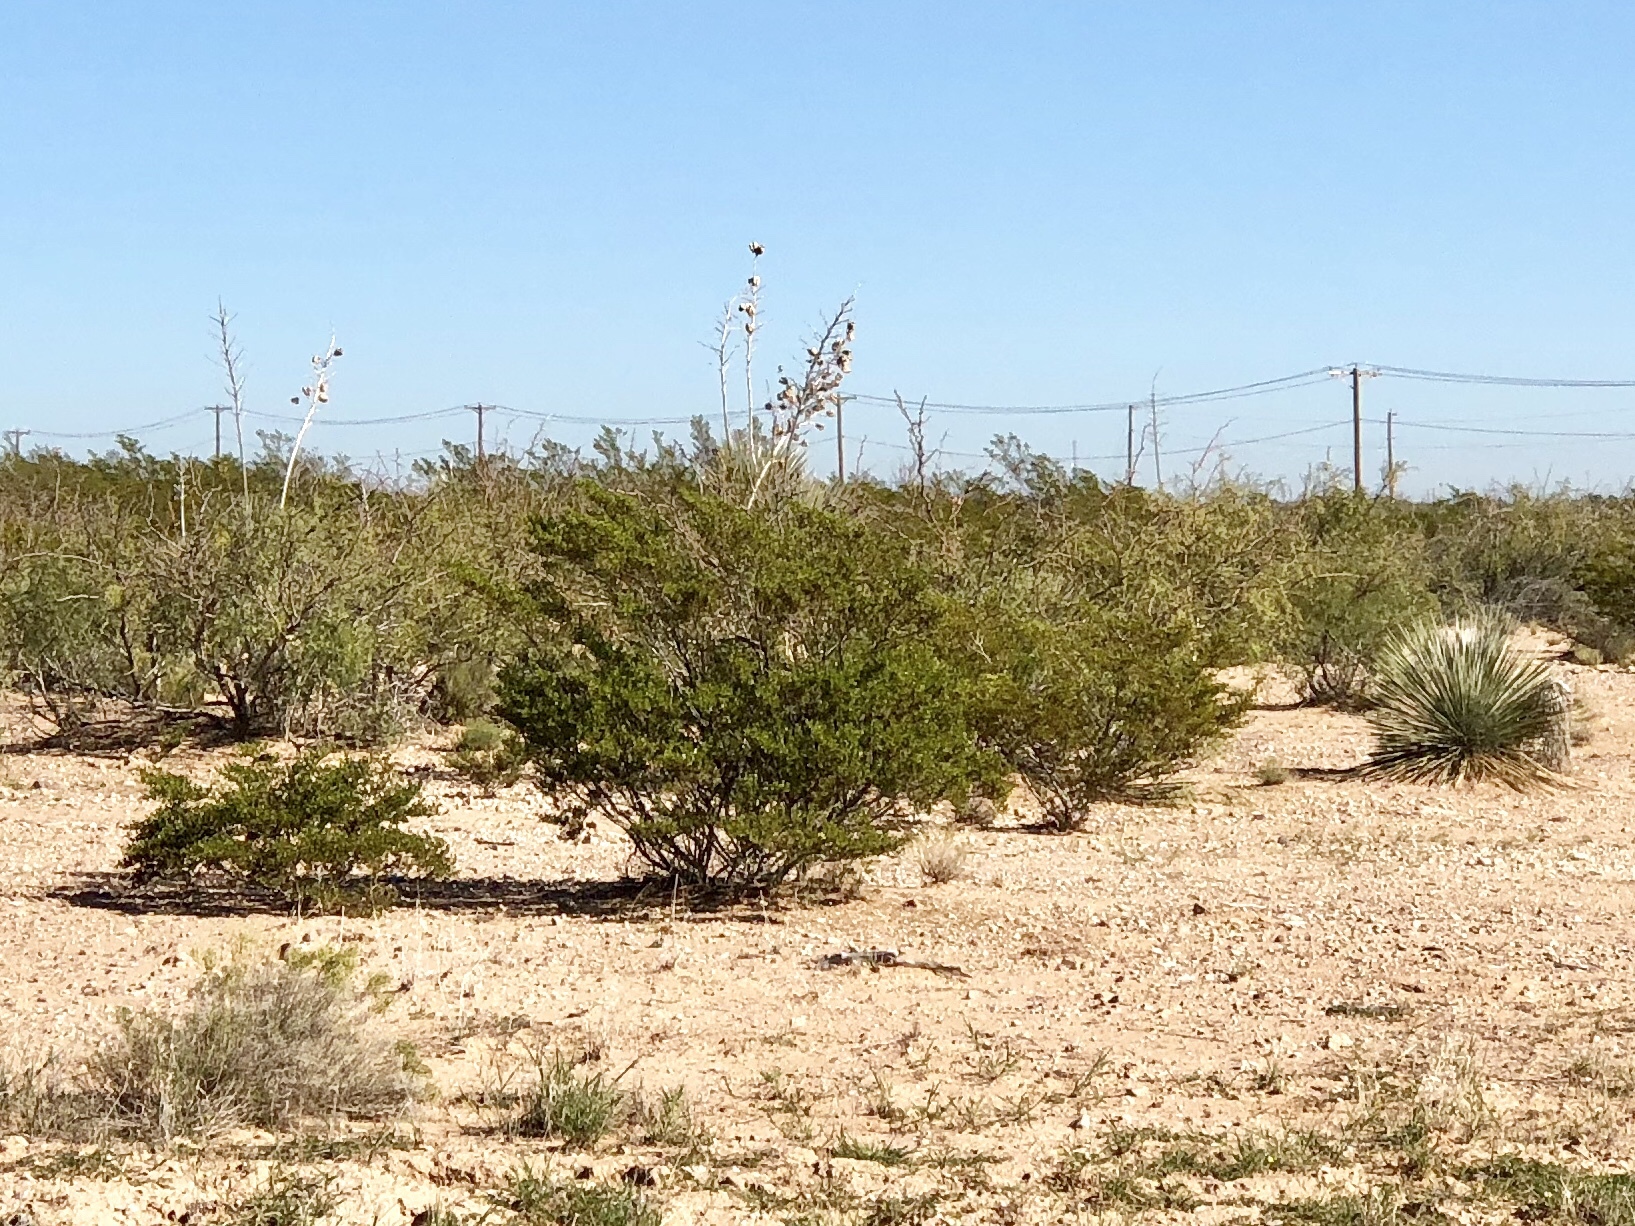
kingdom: Plantae
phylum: Tracheophyta
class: Magnoliopsida
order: Zygophyllales
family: Zygophyllaceae
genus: Larrea
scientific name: Larrea tridentata
